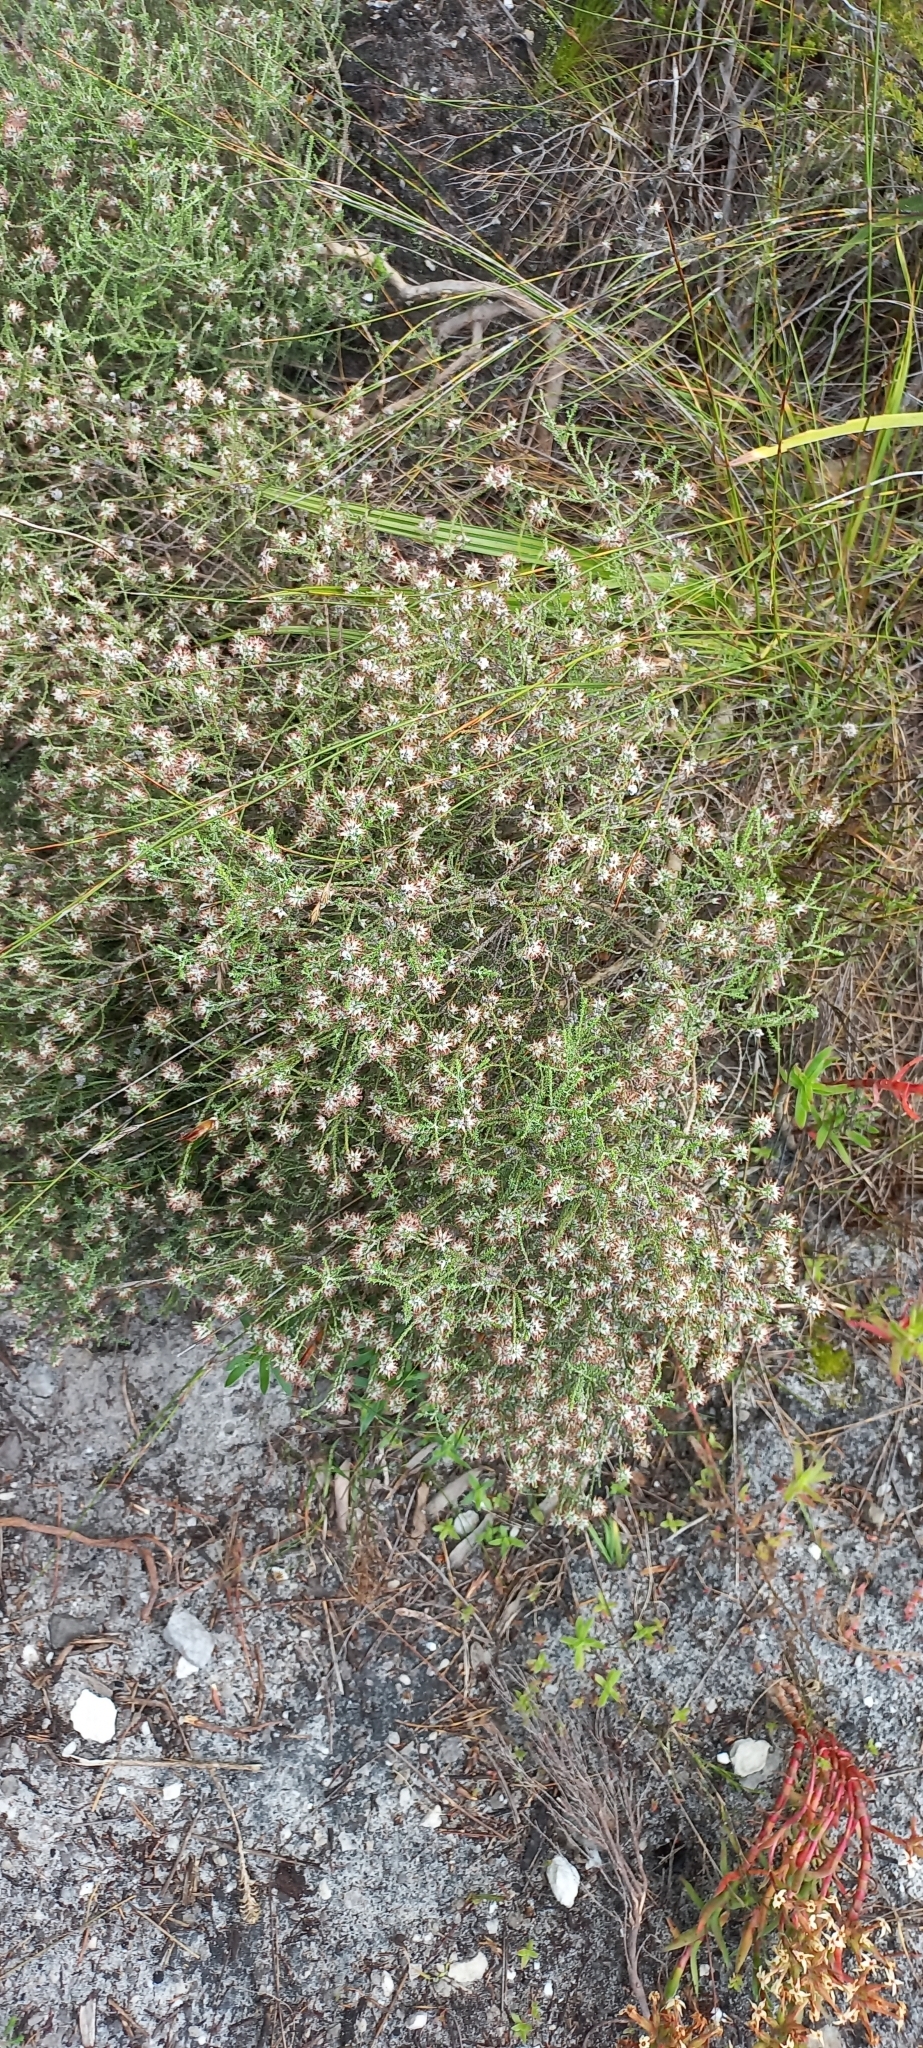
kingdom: Plantae
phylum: Tracheophyta
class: Magnoliopsida
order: Asterales
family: Asteraceae
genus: Seriphium
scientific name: Seriphium incanum
